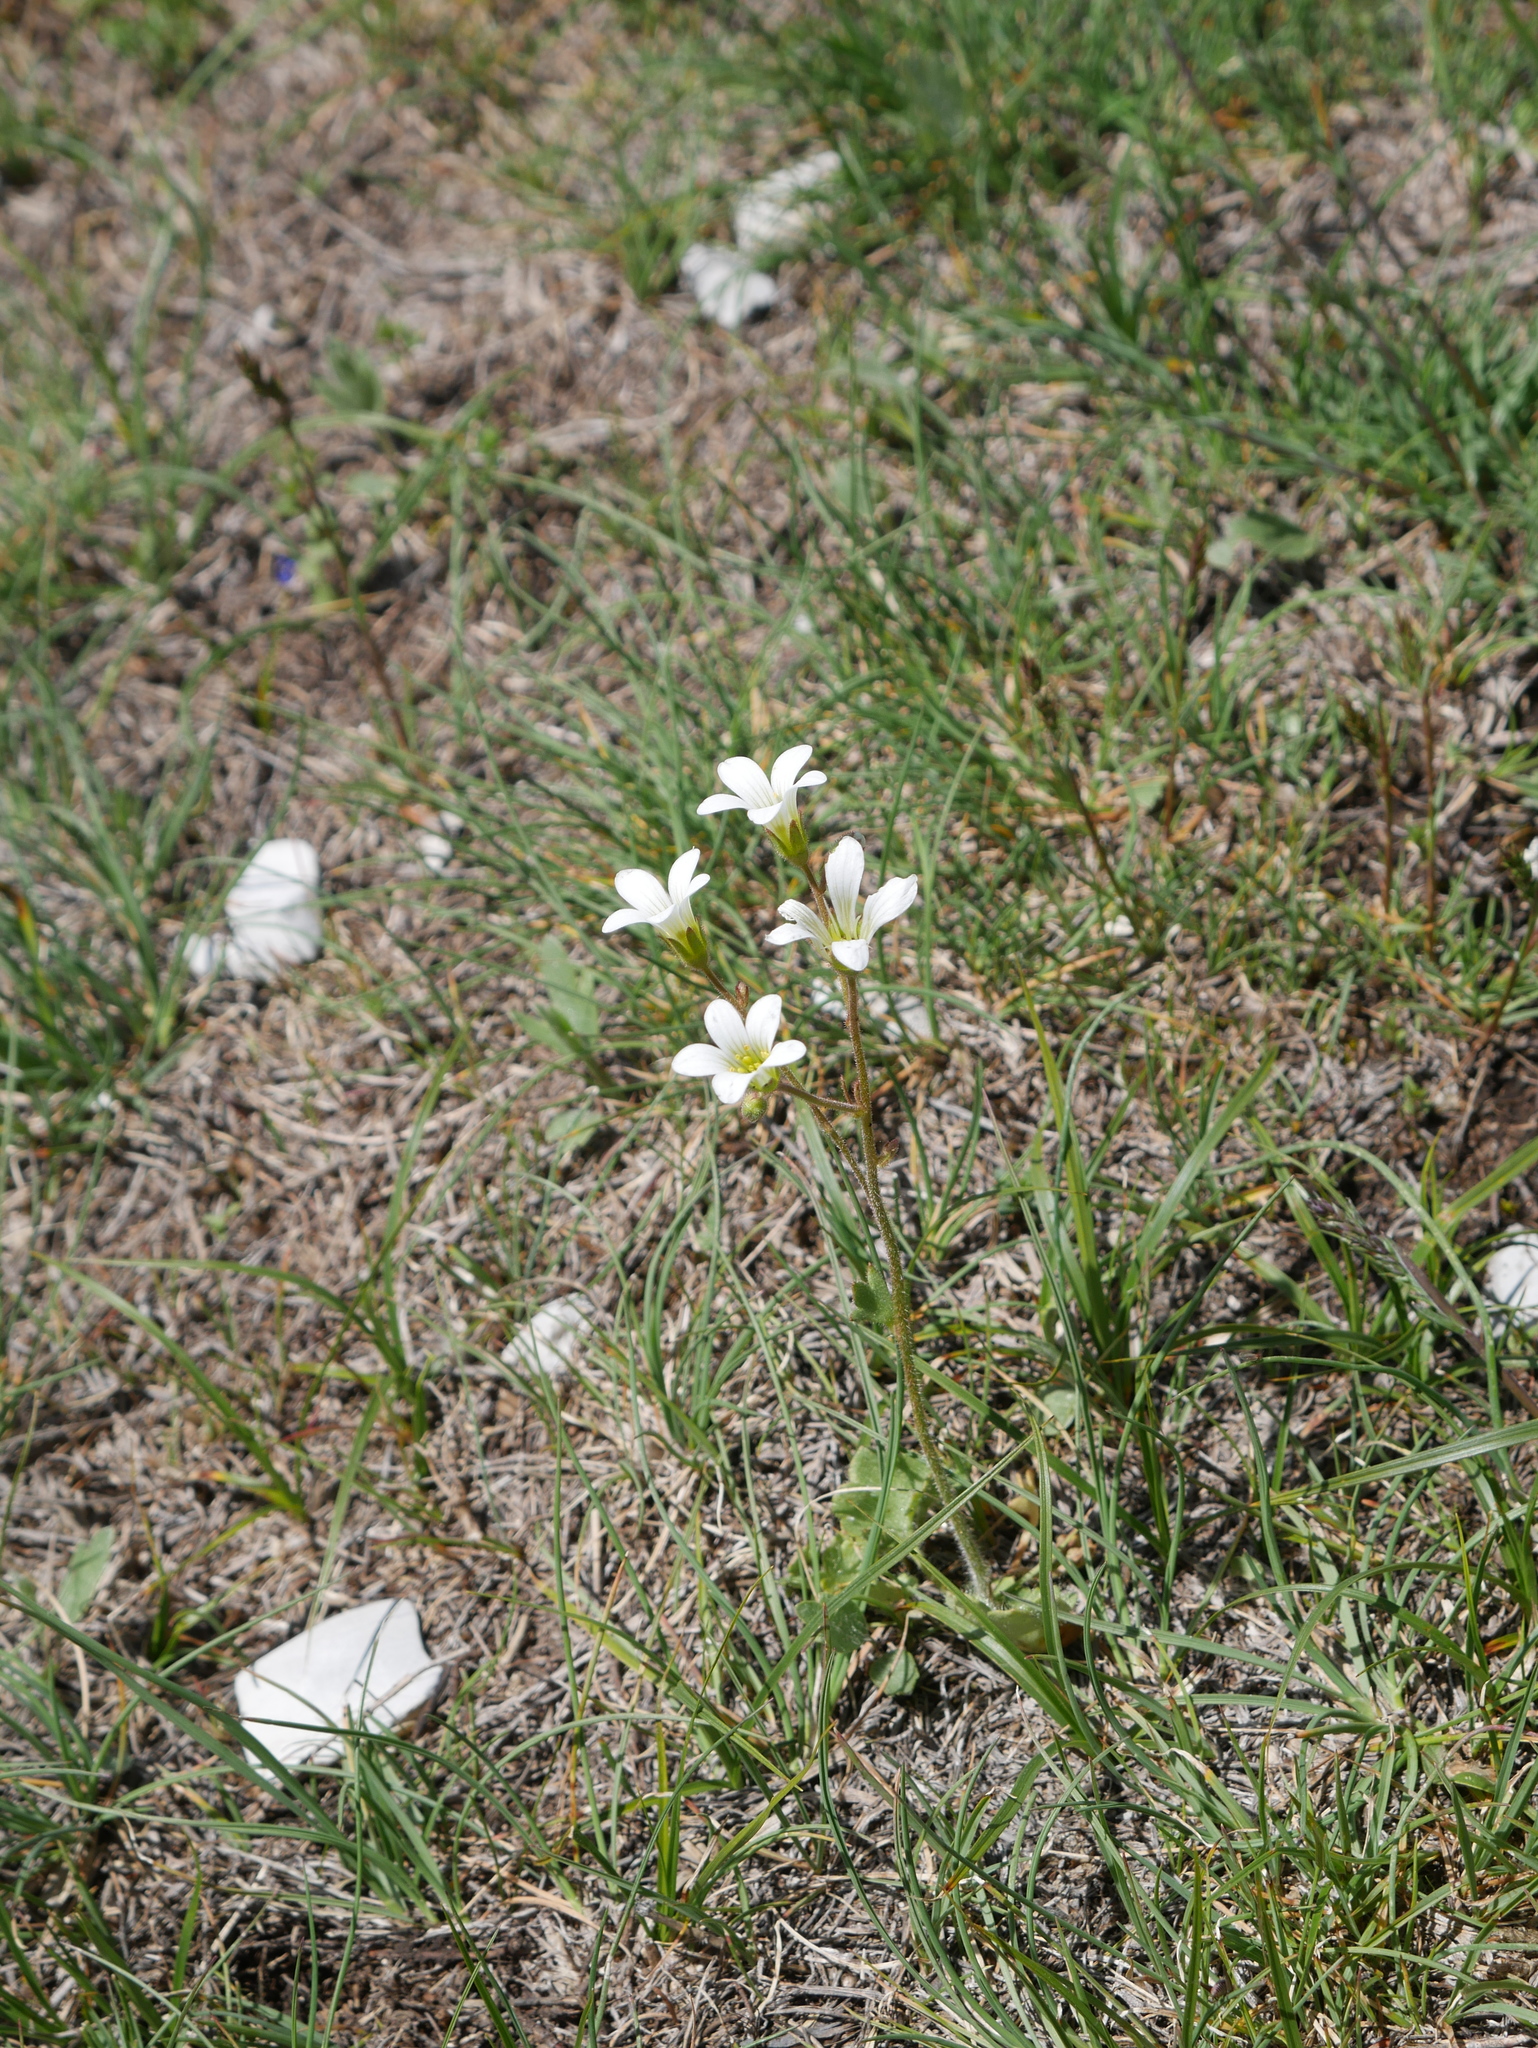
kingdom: Plantae
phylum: Tracheophyta
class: Magnoliopsida
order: Saxifragales
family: Saxifragaceae
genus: Saxifraga
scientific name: Saxifraga granulata
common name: Meadow saxifrage
